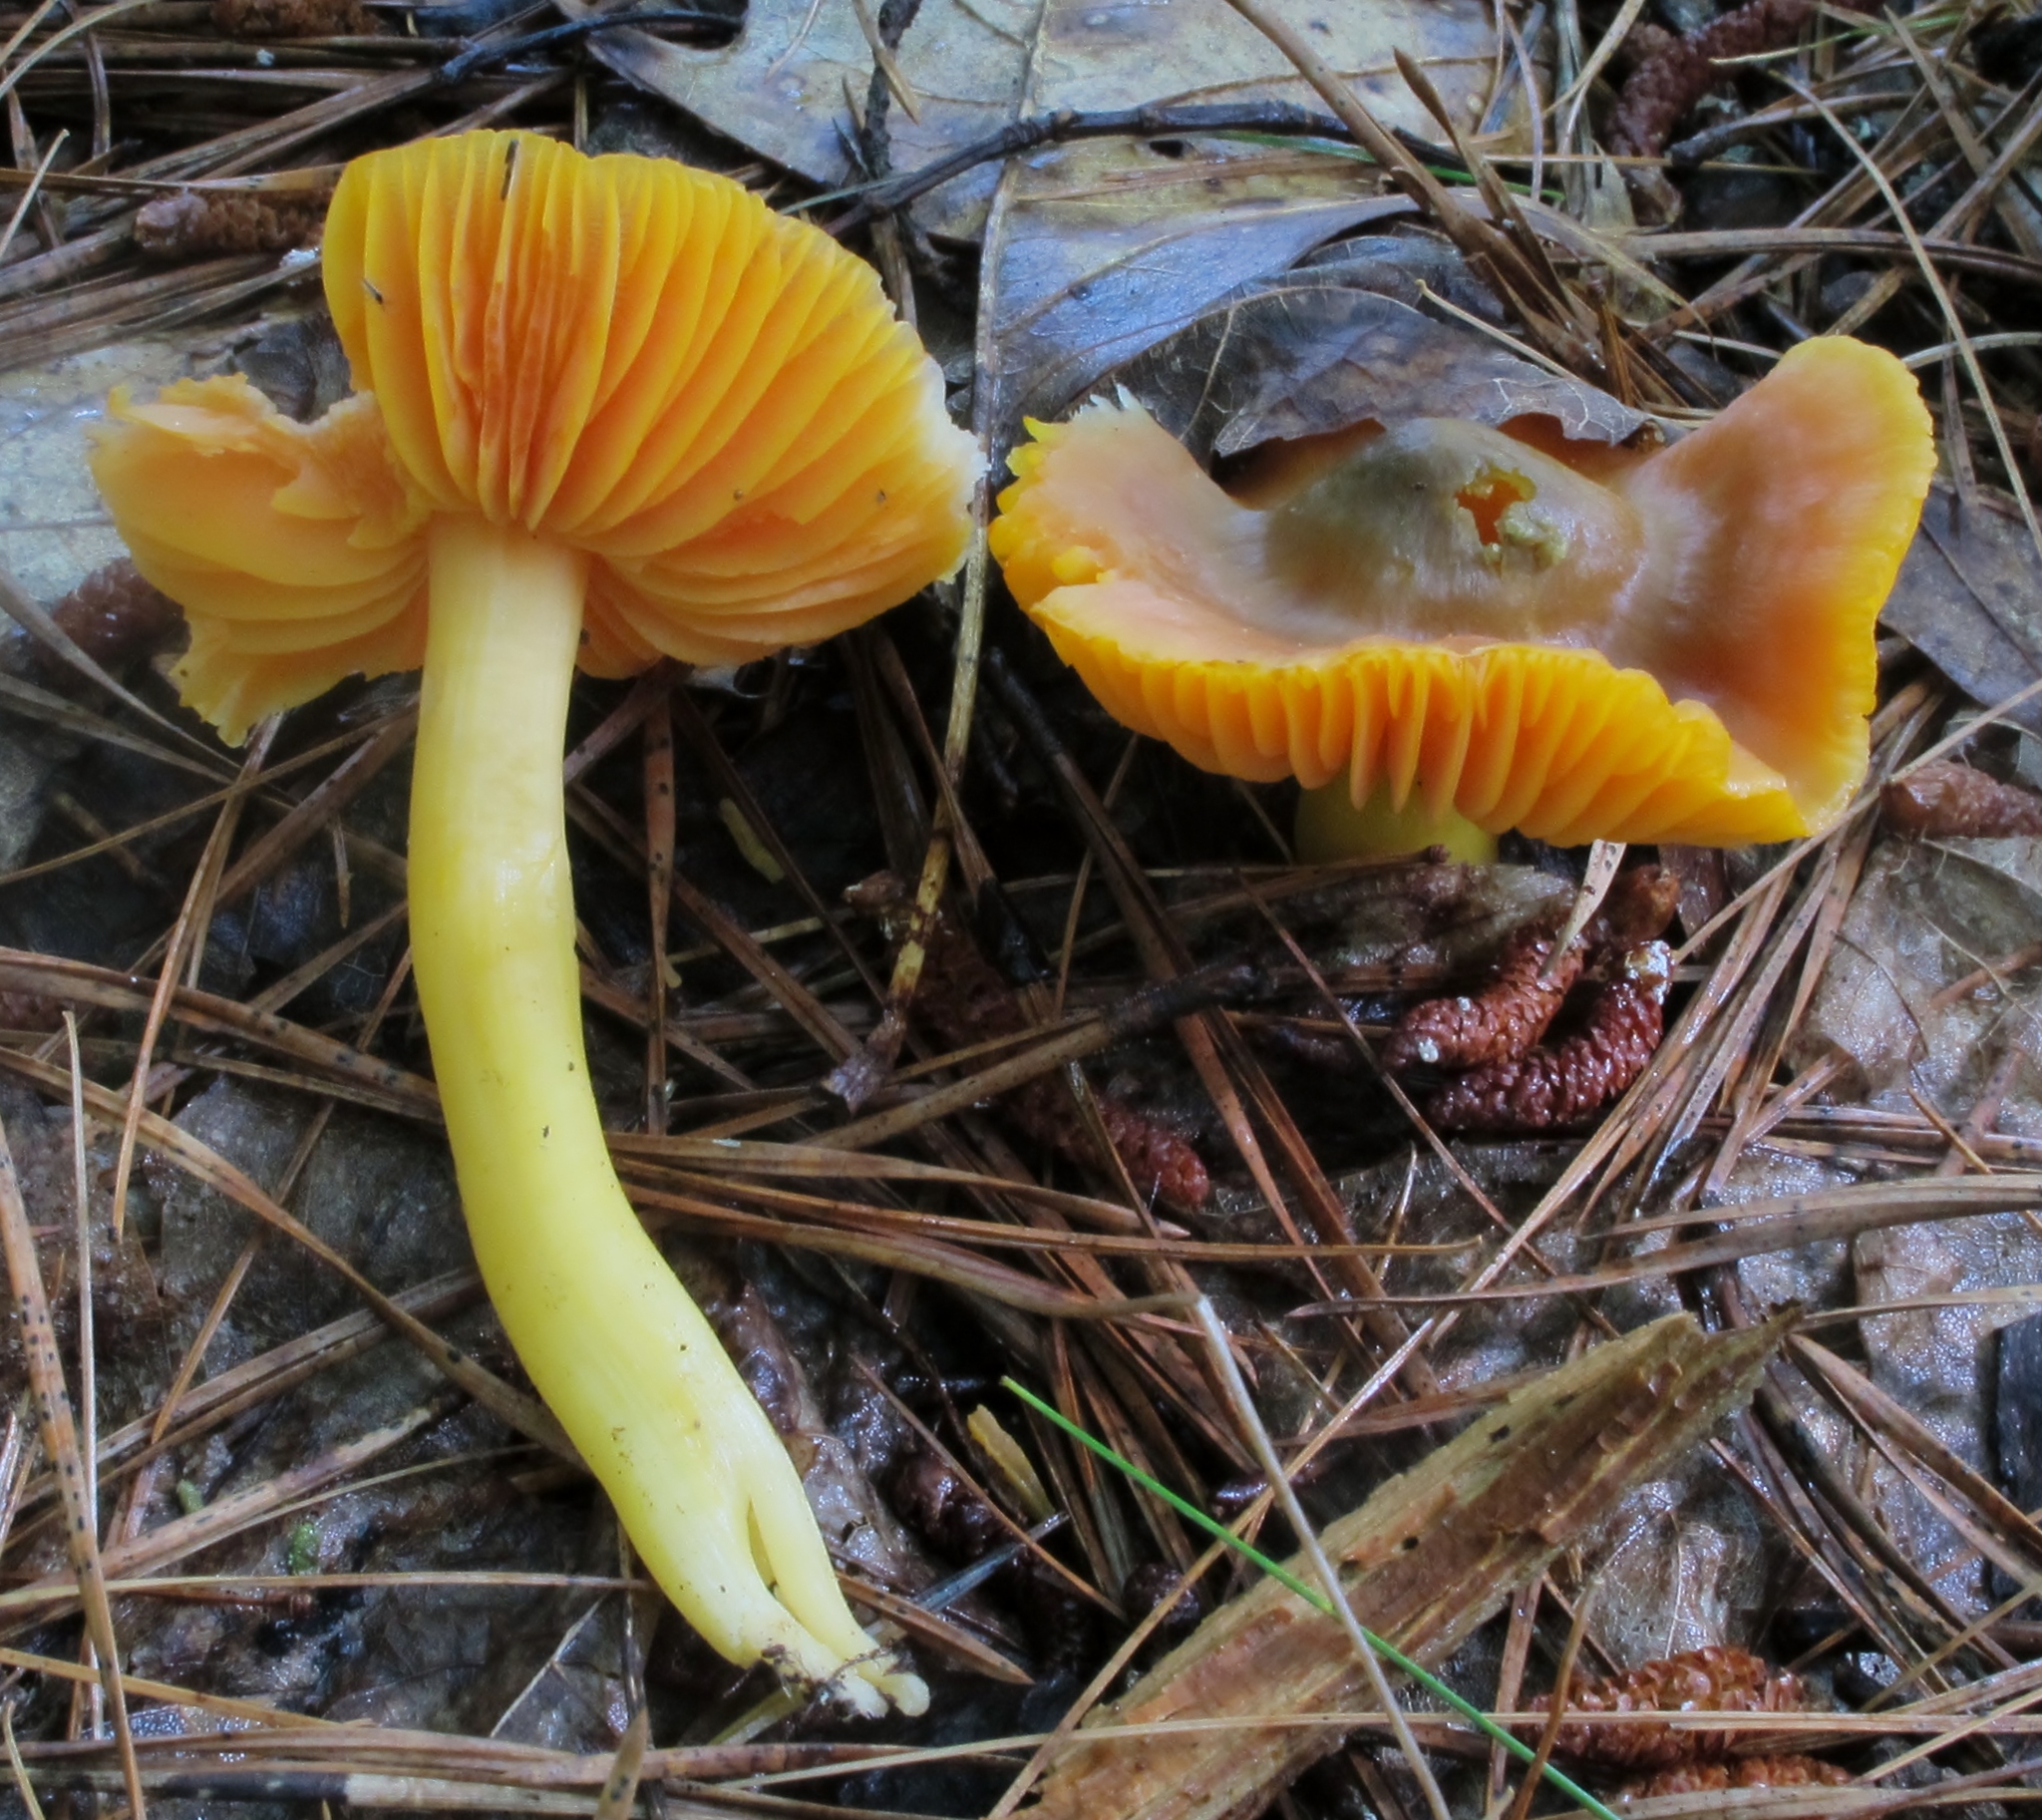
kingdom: Fungi
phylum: Basidiomycota
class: Agaricomycetes
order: Agaricales
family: Hygrophoraceae
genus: Humidicutis
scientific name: Humidicutis marginata
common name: Orange gilled waxcap
